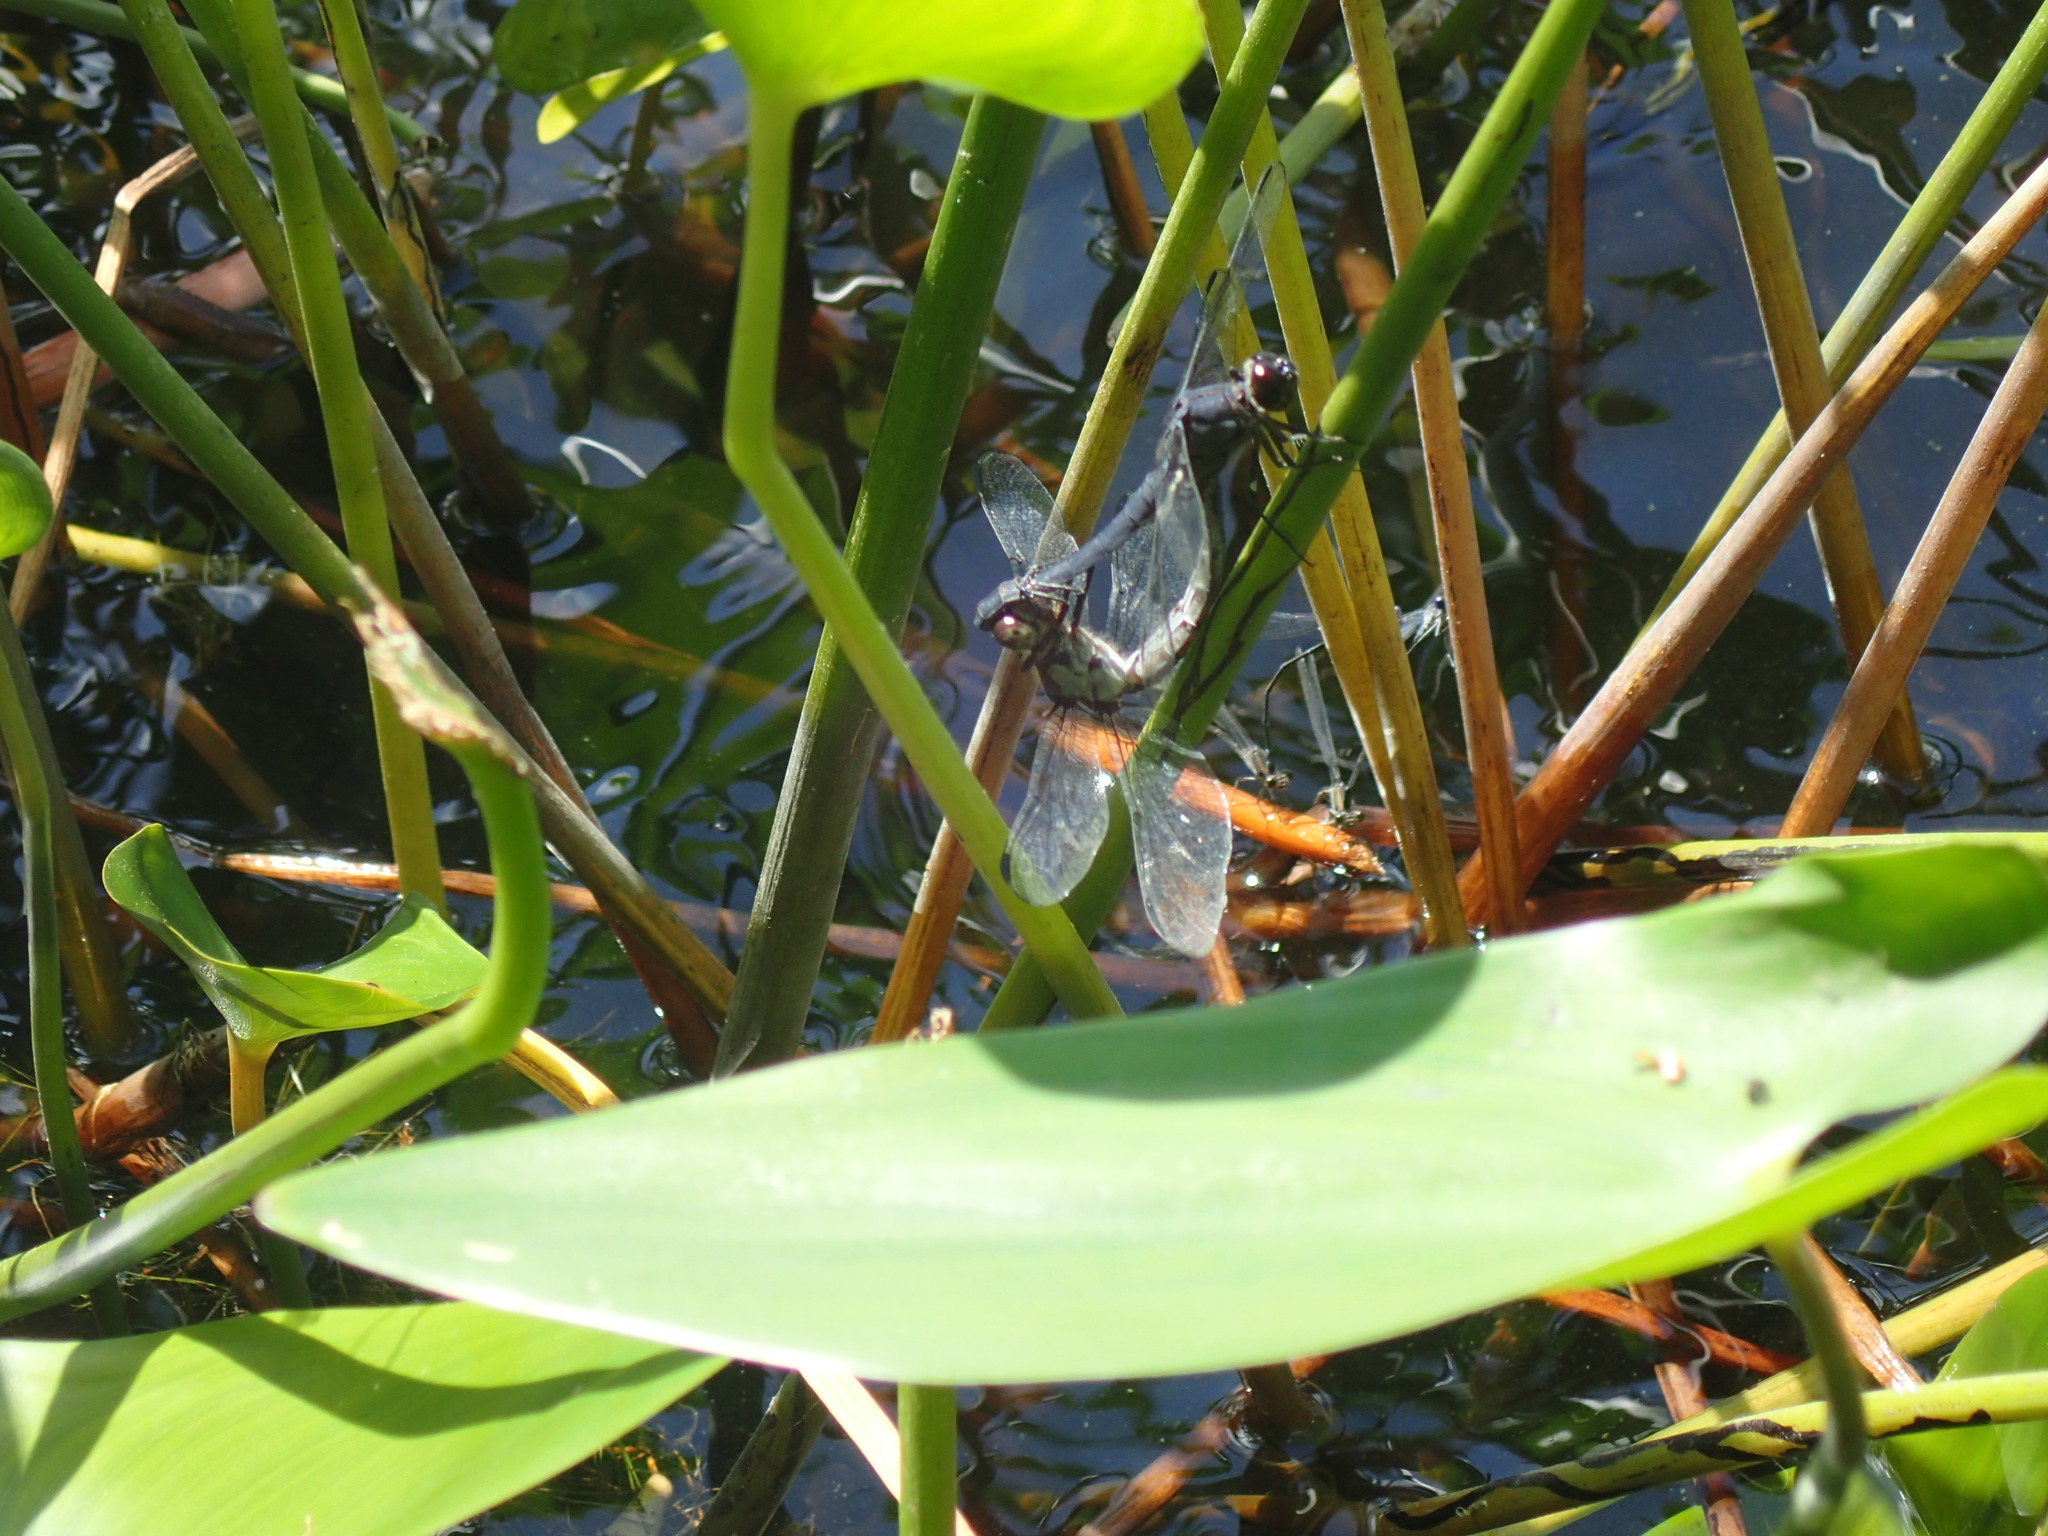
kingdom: Animalia
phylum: Arthropoda
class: Insecta
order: Odonata
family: Libellulidae
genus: Libellula
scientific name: Libellula incesta
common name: Slaty skimmer
